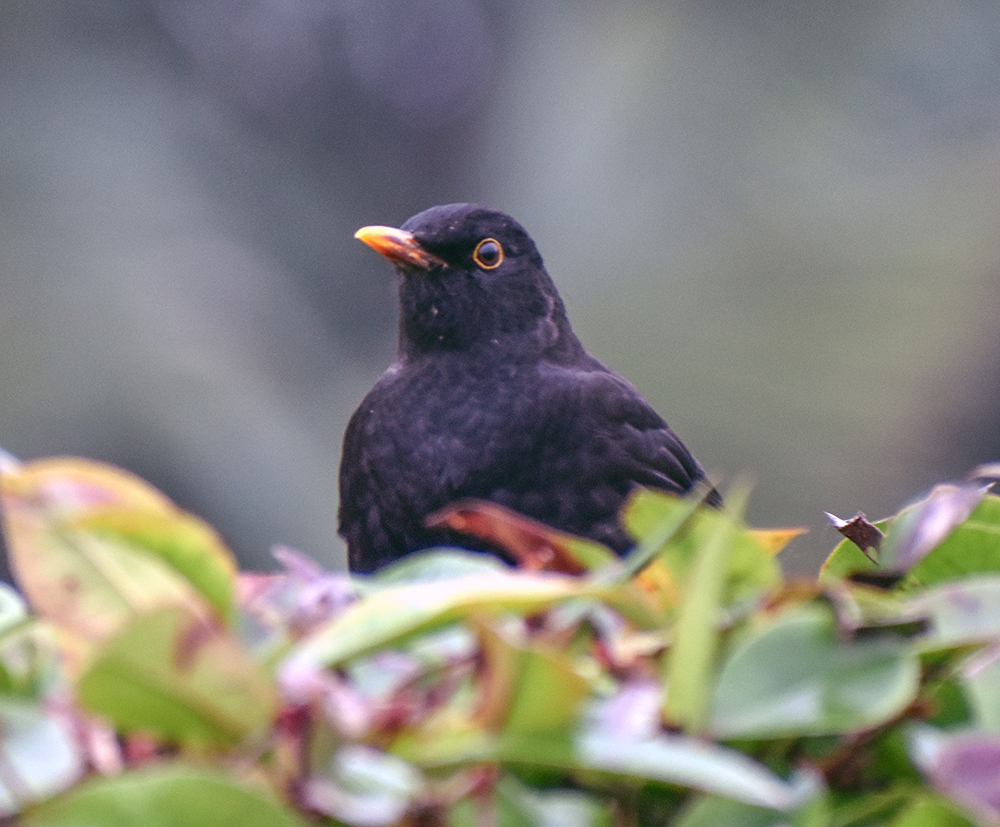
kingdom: Animalia
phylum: Chordata
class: Aves
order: Passeriformes
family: Turdidae
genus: Turdus
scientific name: Turdus merula
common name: Common blackbird
